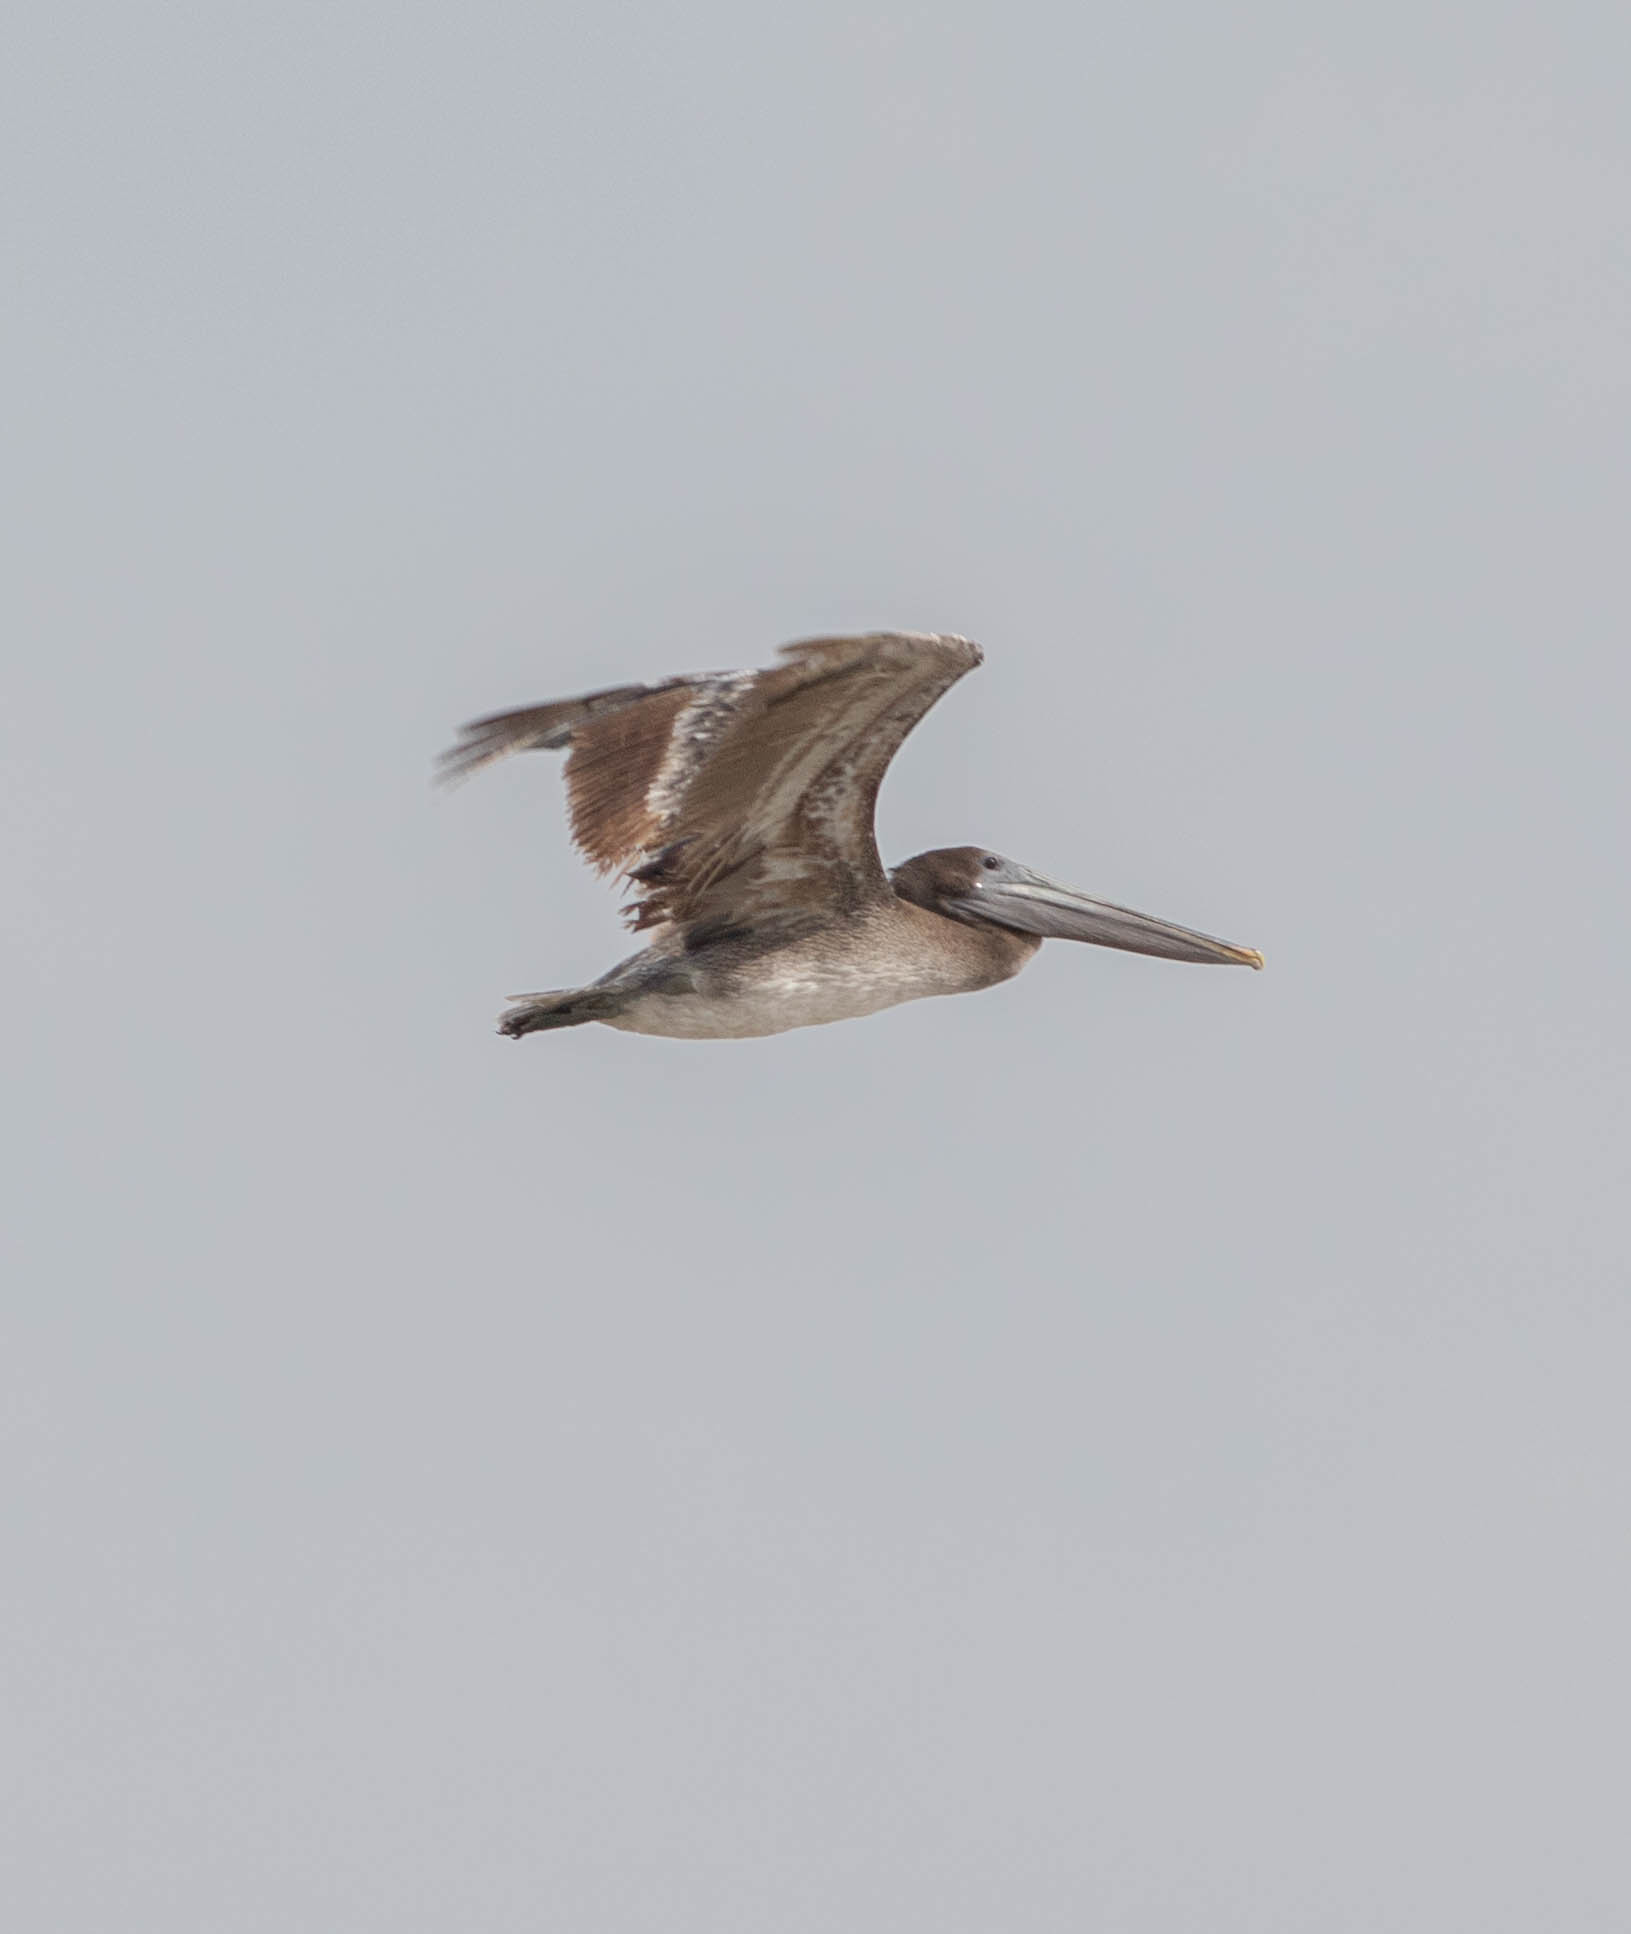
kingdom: Animalia
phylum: Chordata
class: Aves
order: Pelecaniformes
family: Pelecanidae
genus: Pelecanus
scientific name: Pelecanus occidentalis
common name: Brown pelican
